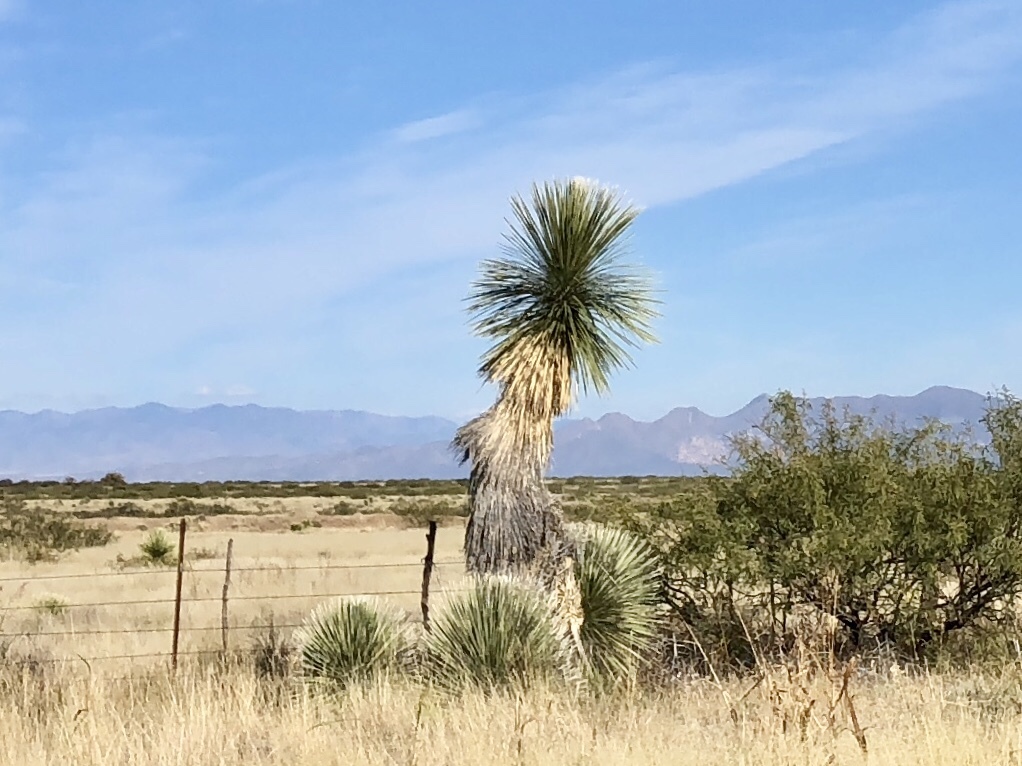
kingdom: Plantae
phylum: Tracheophyta
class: Liliopsida
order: Asparagales
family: Asparagaceae
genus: Yucca
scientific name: Yucca elata
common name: Palmella
